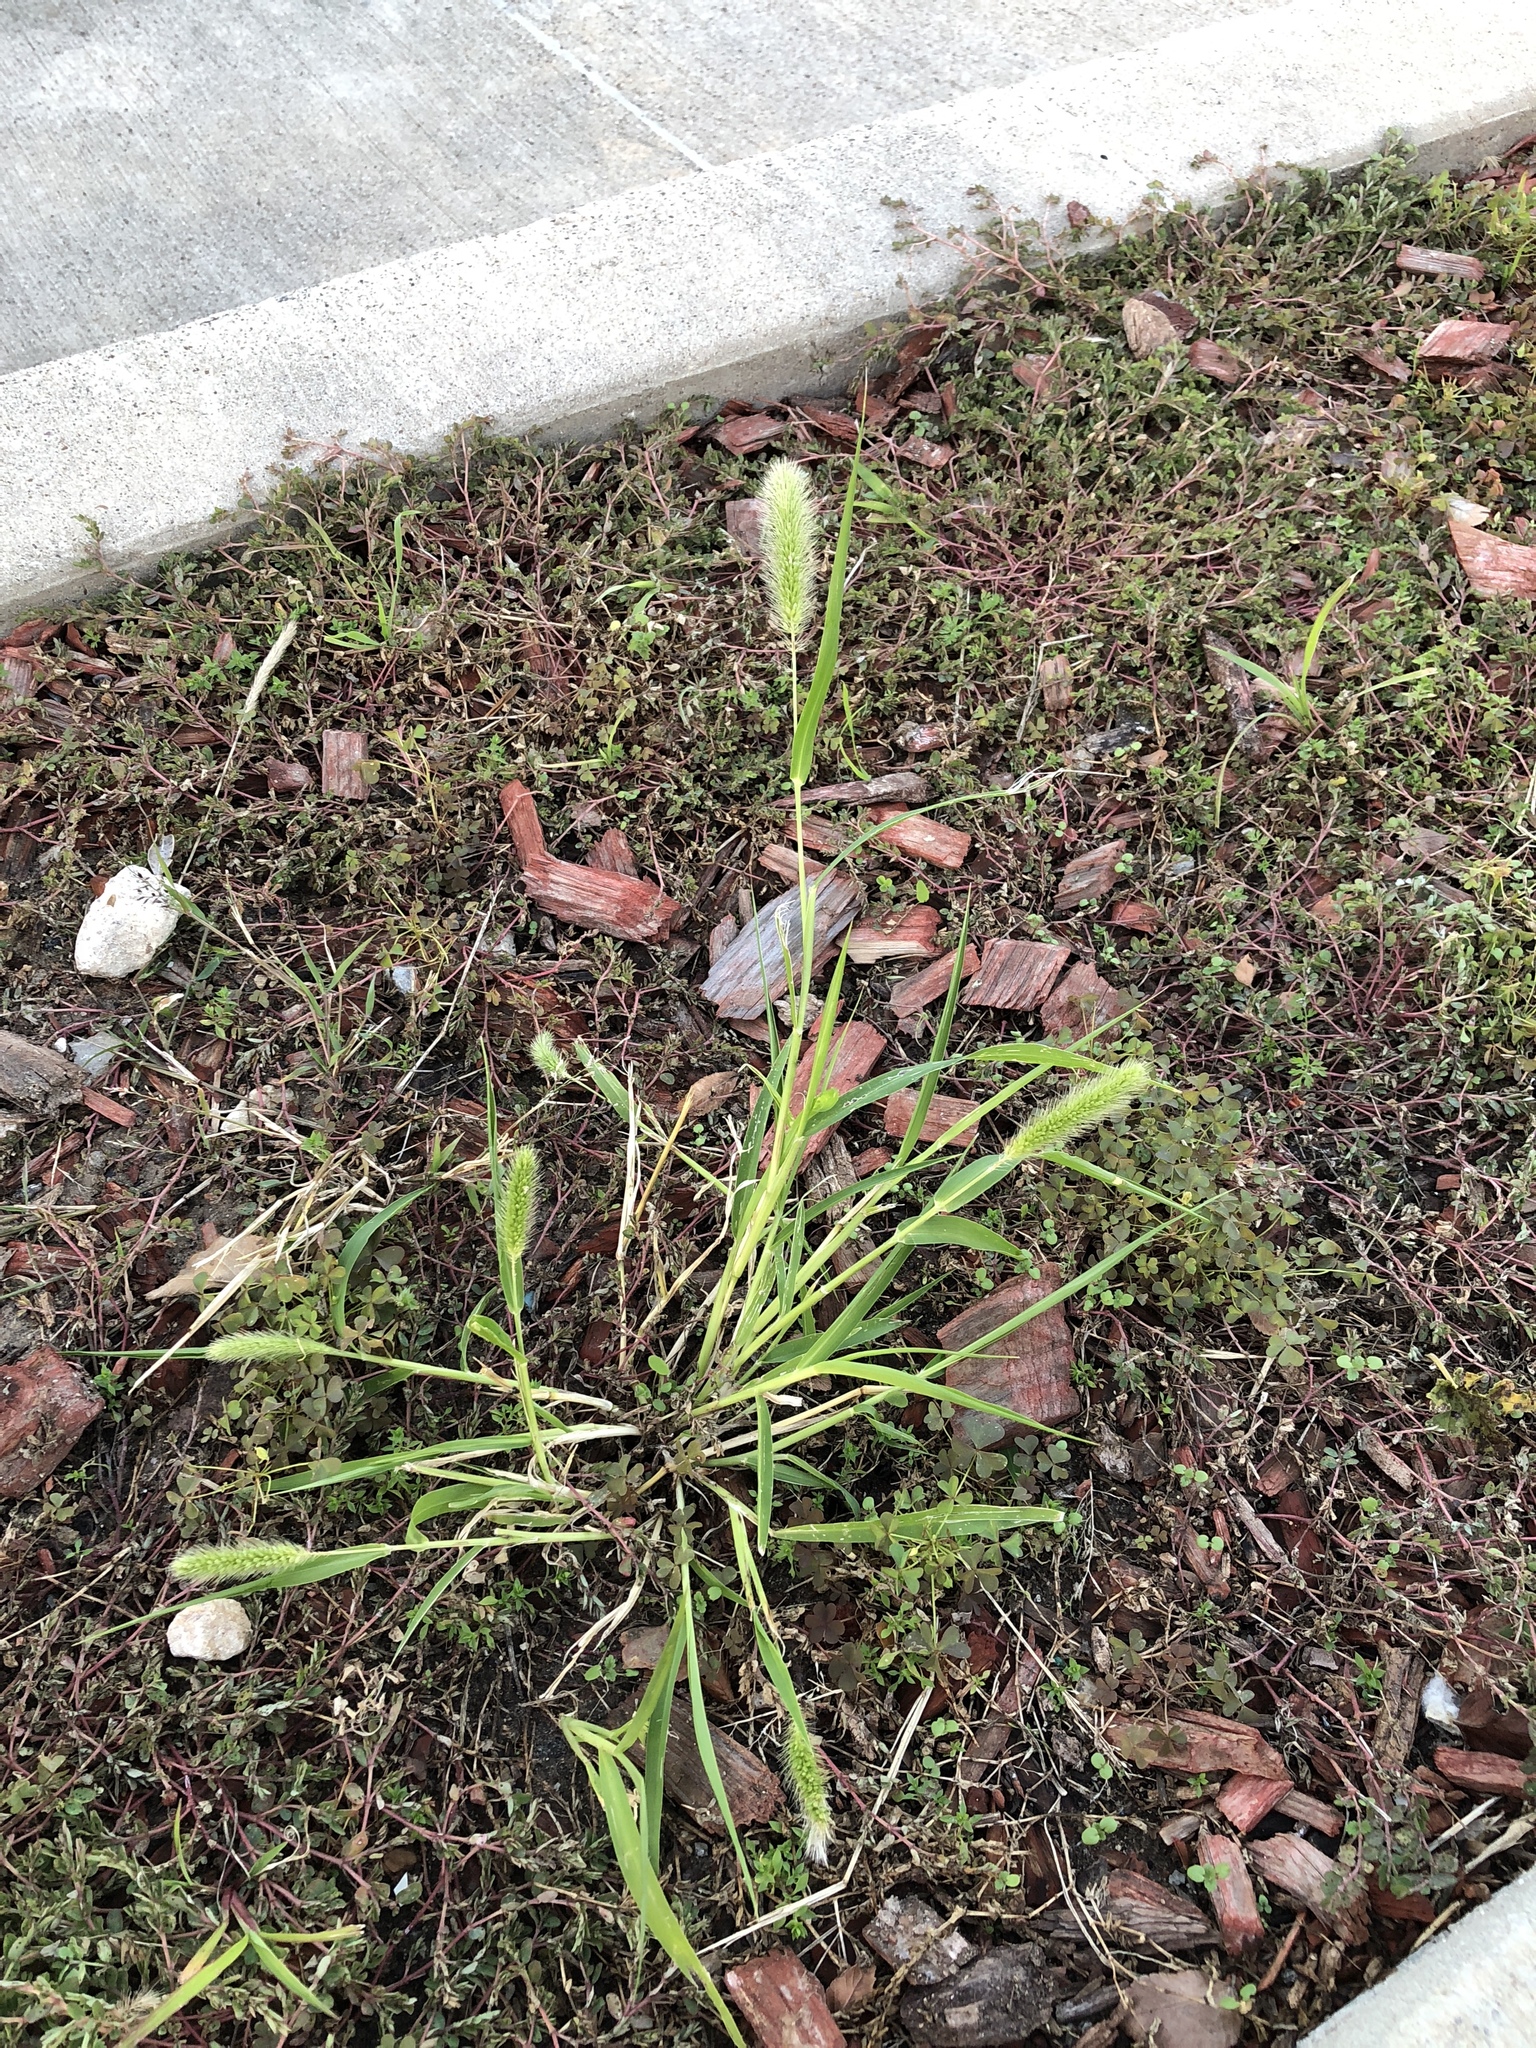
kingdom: Plantae
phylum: Tracheophyta
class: Liliopsida
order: Poales
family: Poaceae
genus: Setaria
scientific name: Setaria viridis
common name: Green bristlegrass
